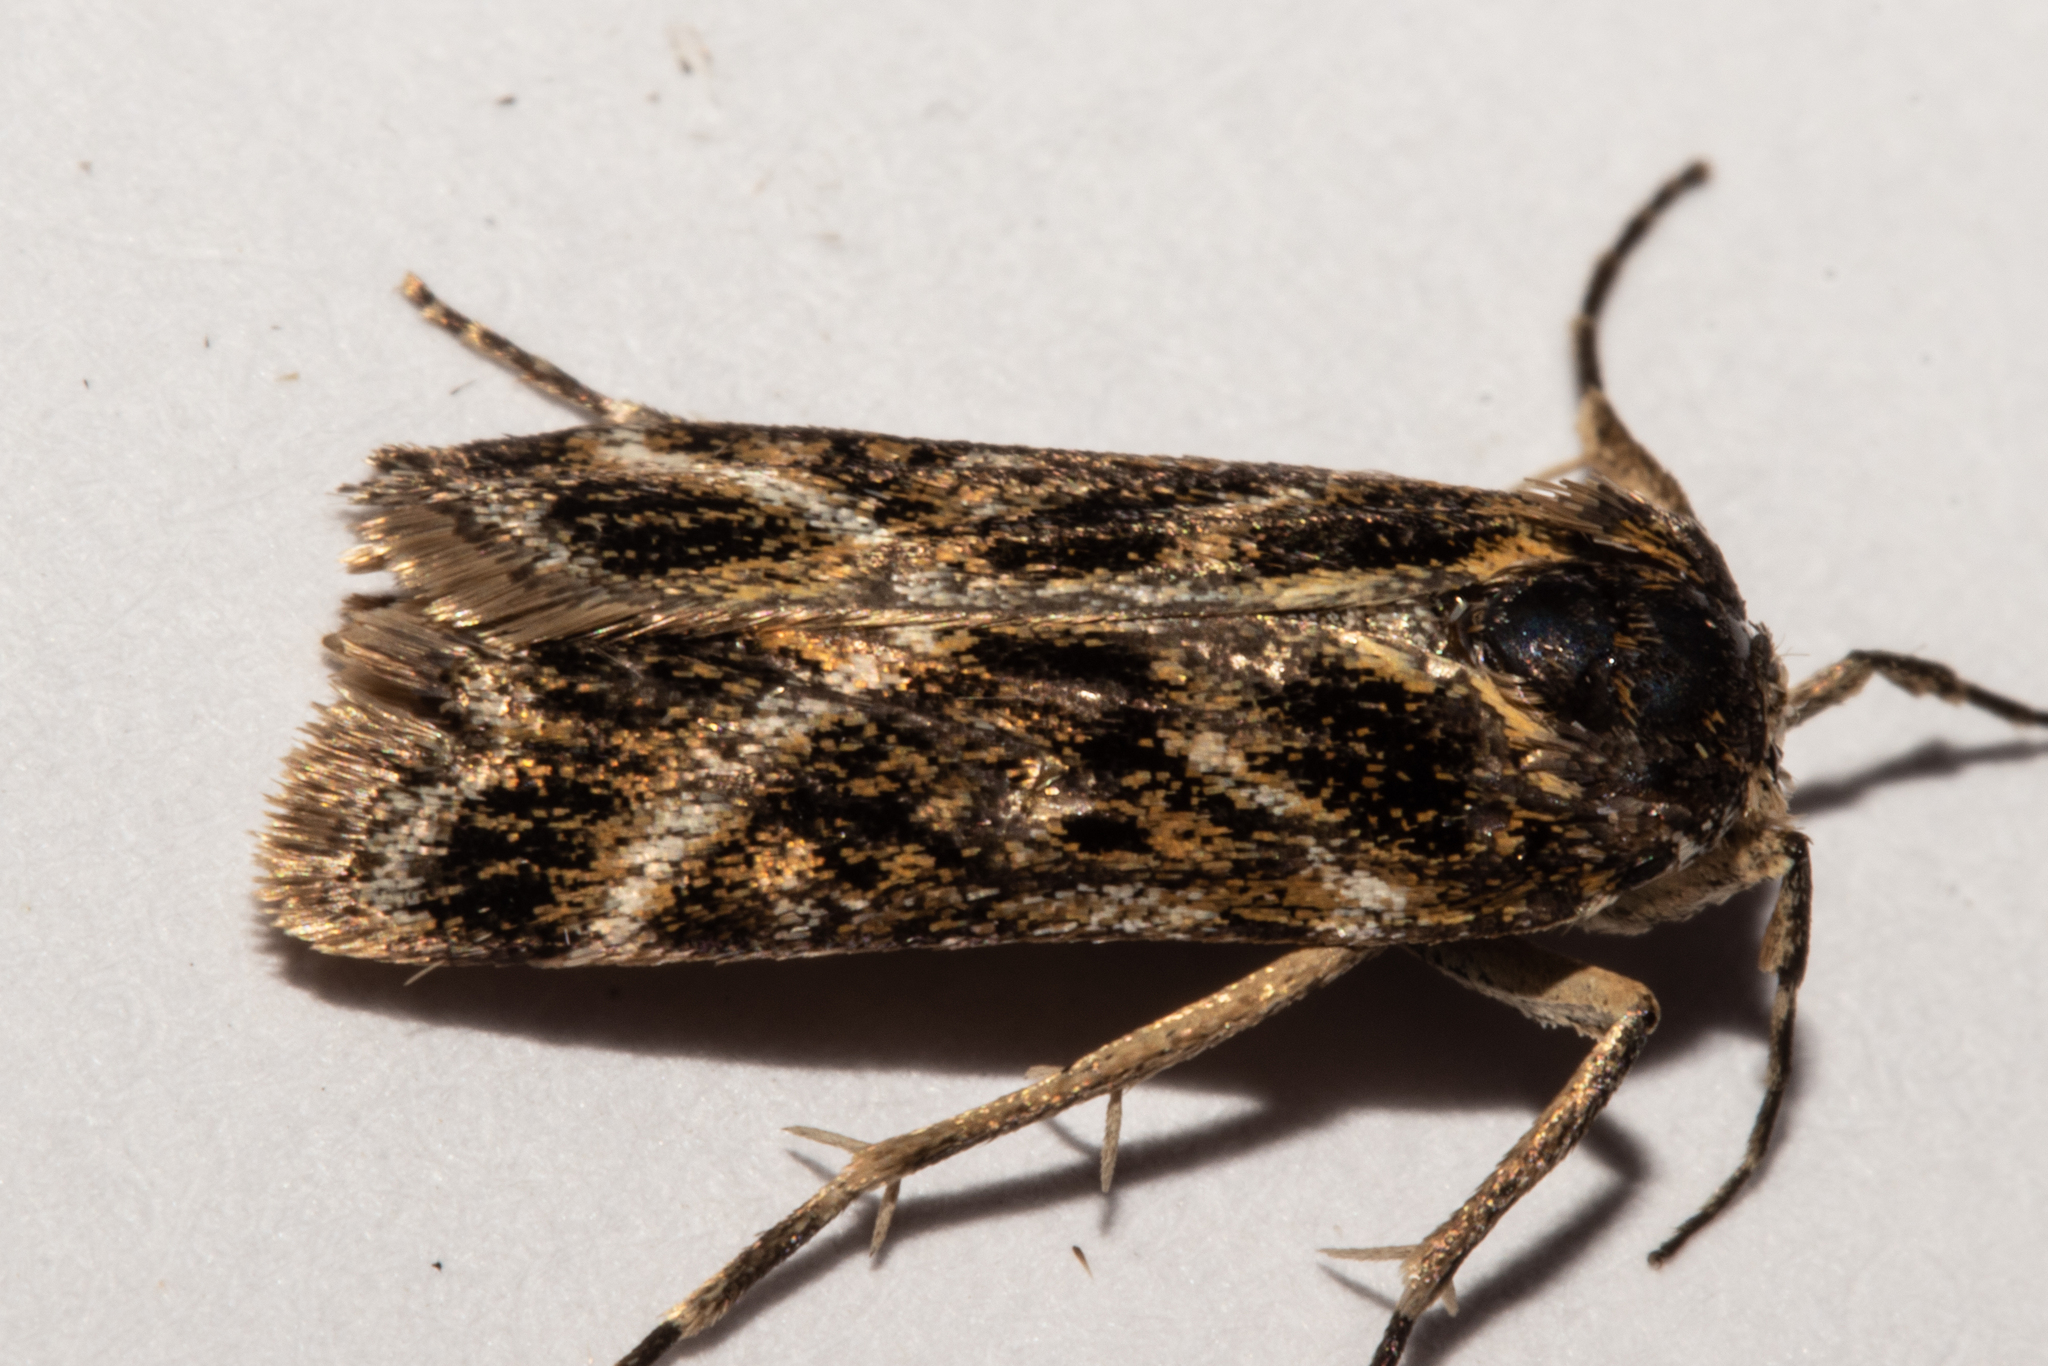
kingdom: Animalia
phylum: Arthropoda
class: Insecta
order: Lepidoptera
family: Crambidae
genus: Eudonia
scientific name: Eudonia xysmatias
